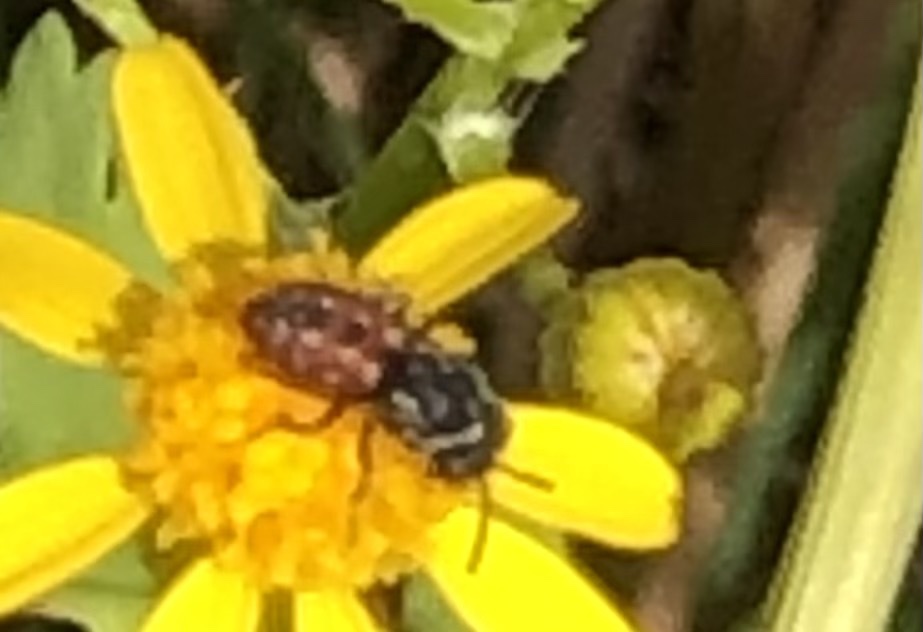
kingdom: Animalia
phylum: Arthropoda
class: Insecta
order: Hymenoptera
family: Apidae
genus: Holcopasites
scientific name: Holcopasites calliopsidis
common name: Calliopsis cuckoo nomad bee
